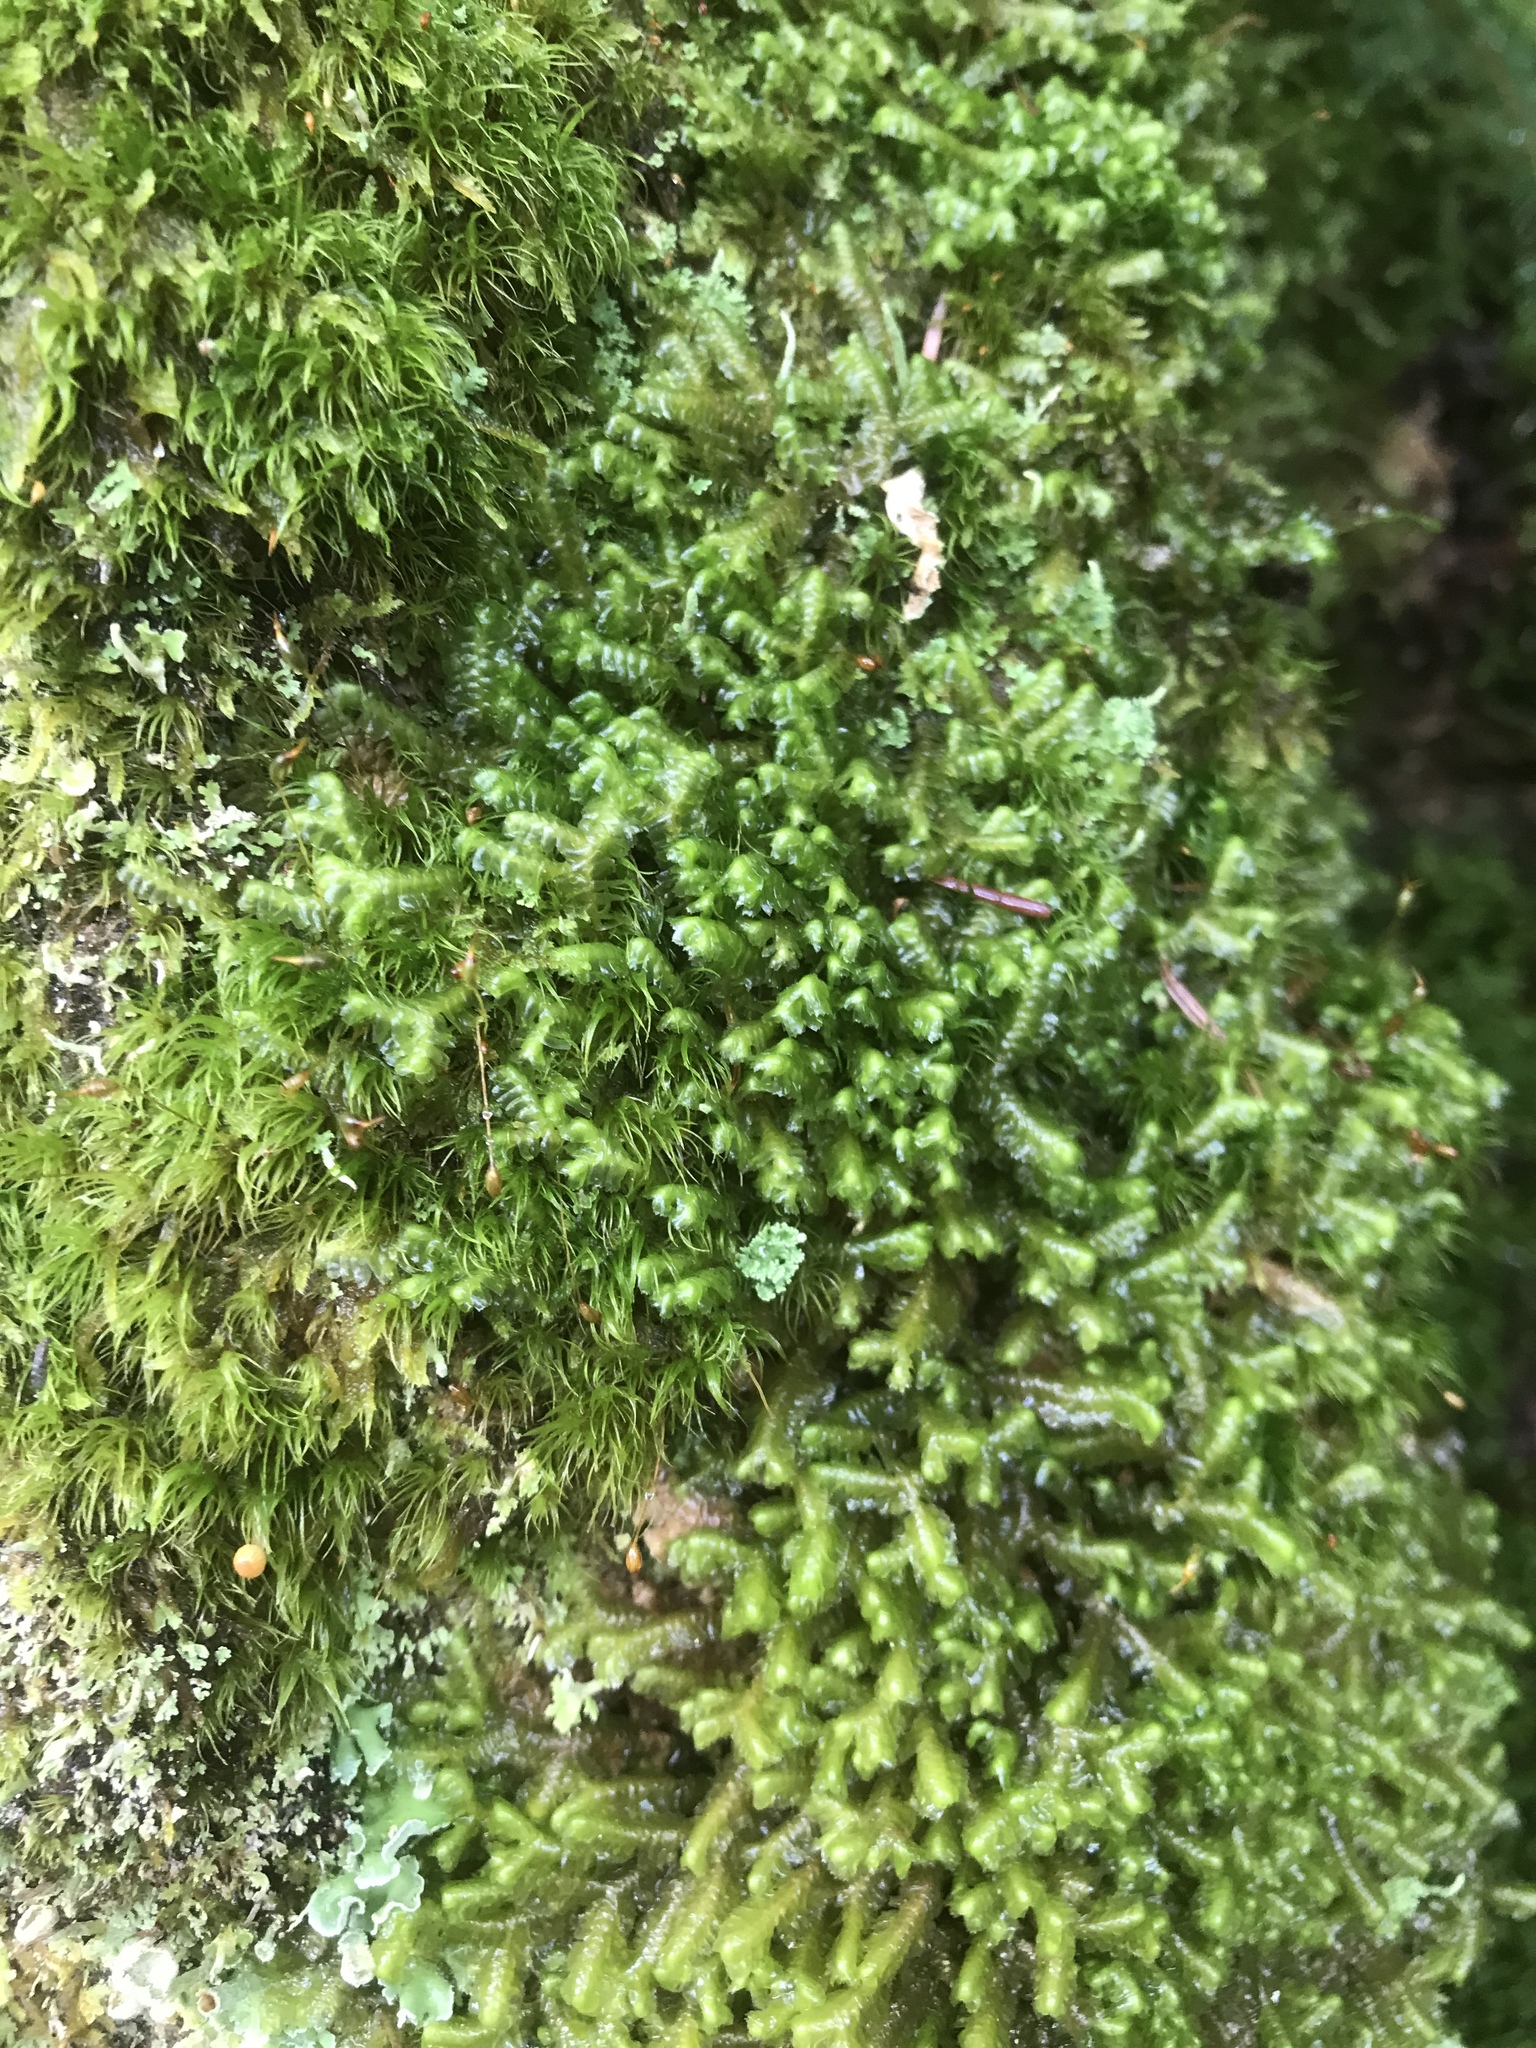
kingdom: Plantae
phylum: Marchantiophyta
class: Jungermanniopsida
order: Jungermanniales
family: Lepidoziaceae
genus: Bazzania
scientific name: Bazzania trilobata
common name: Three-lobed whipwort
